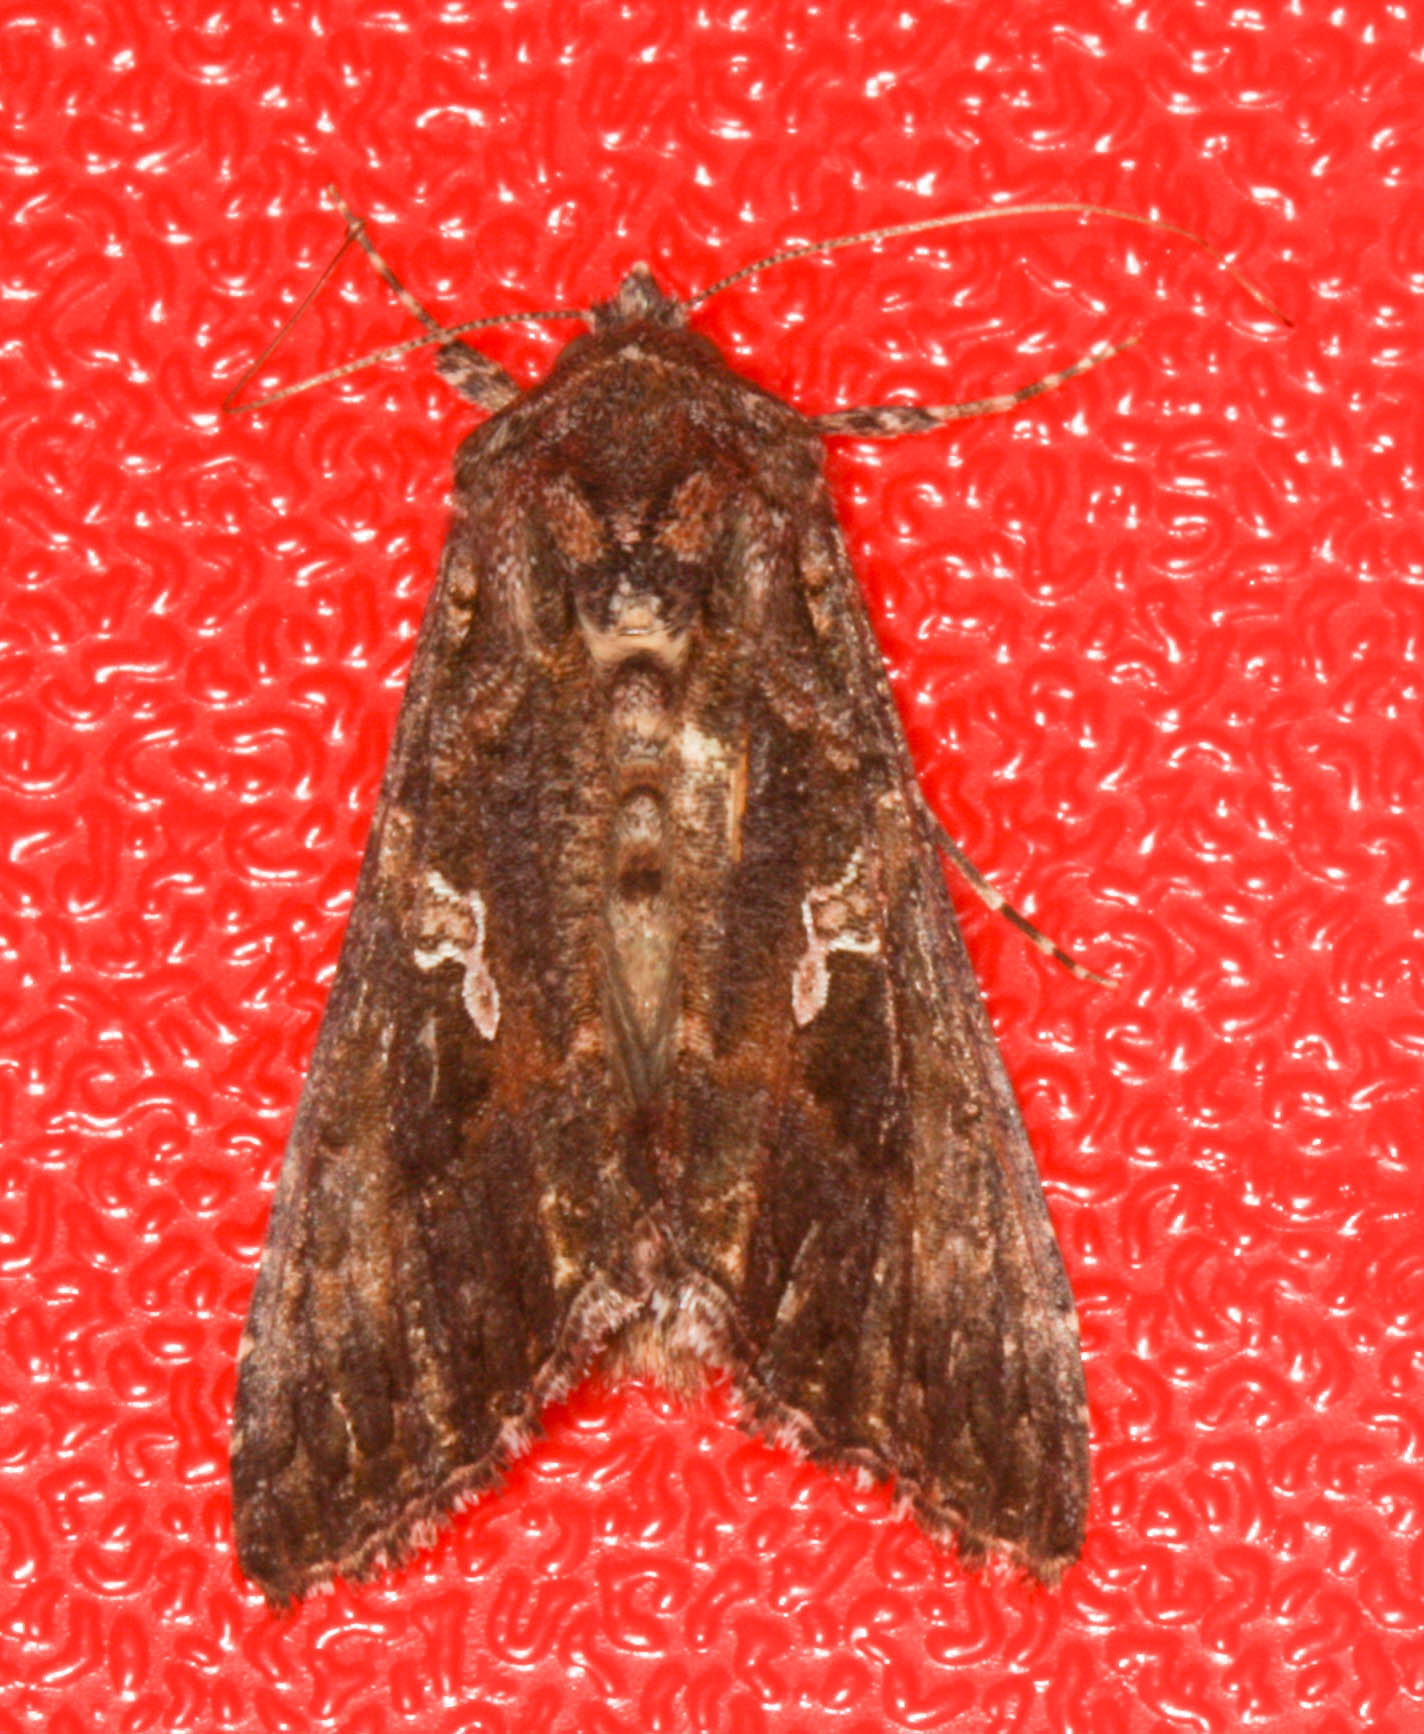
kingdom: Animalia
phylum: Arthropoda
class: Insecta
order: Lepidoptera
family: Noctuidae
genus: Trichoplusia
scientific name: Trichoplusia ni
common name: Ni moth
